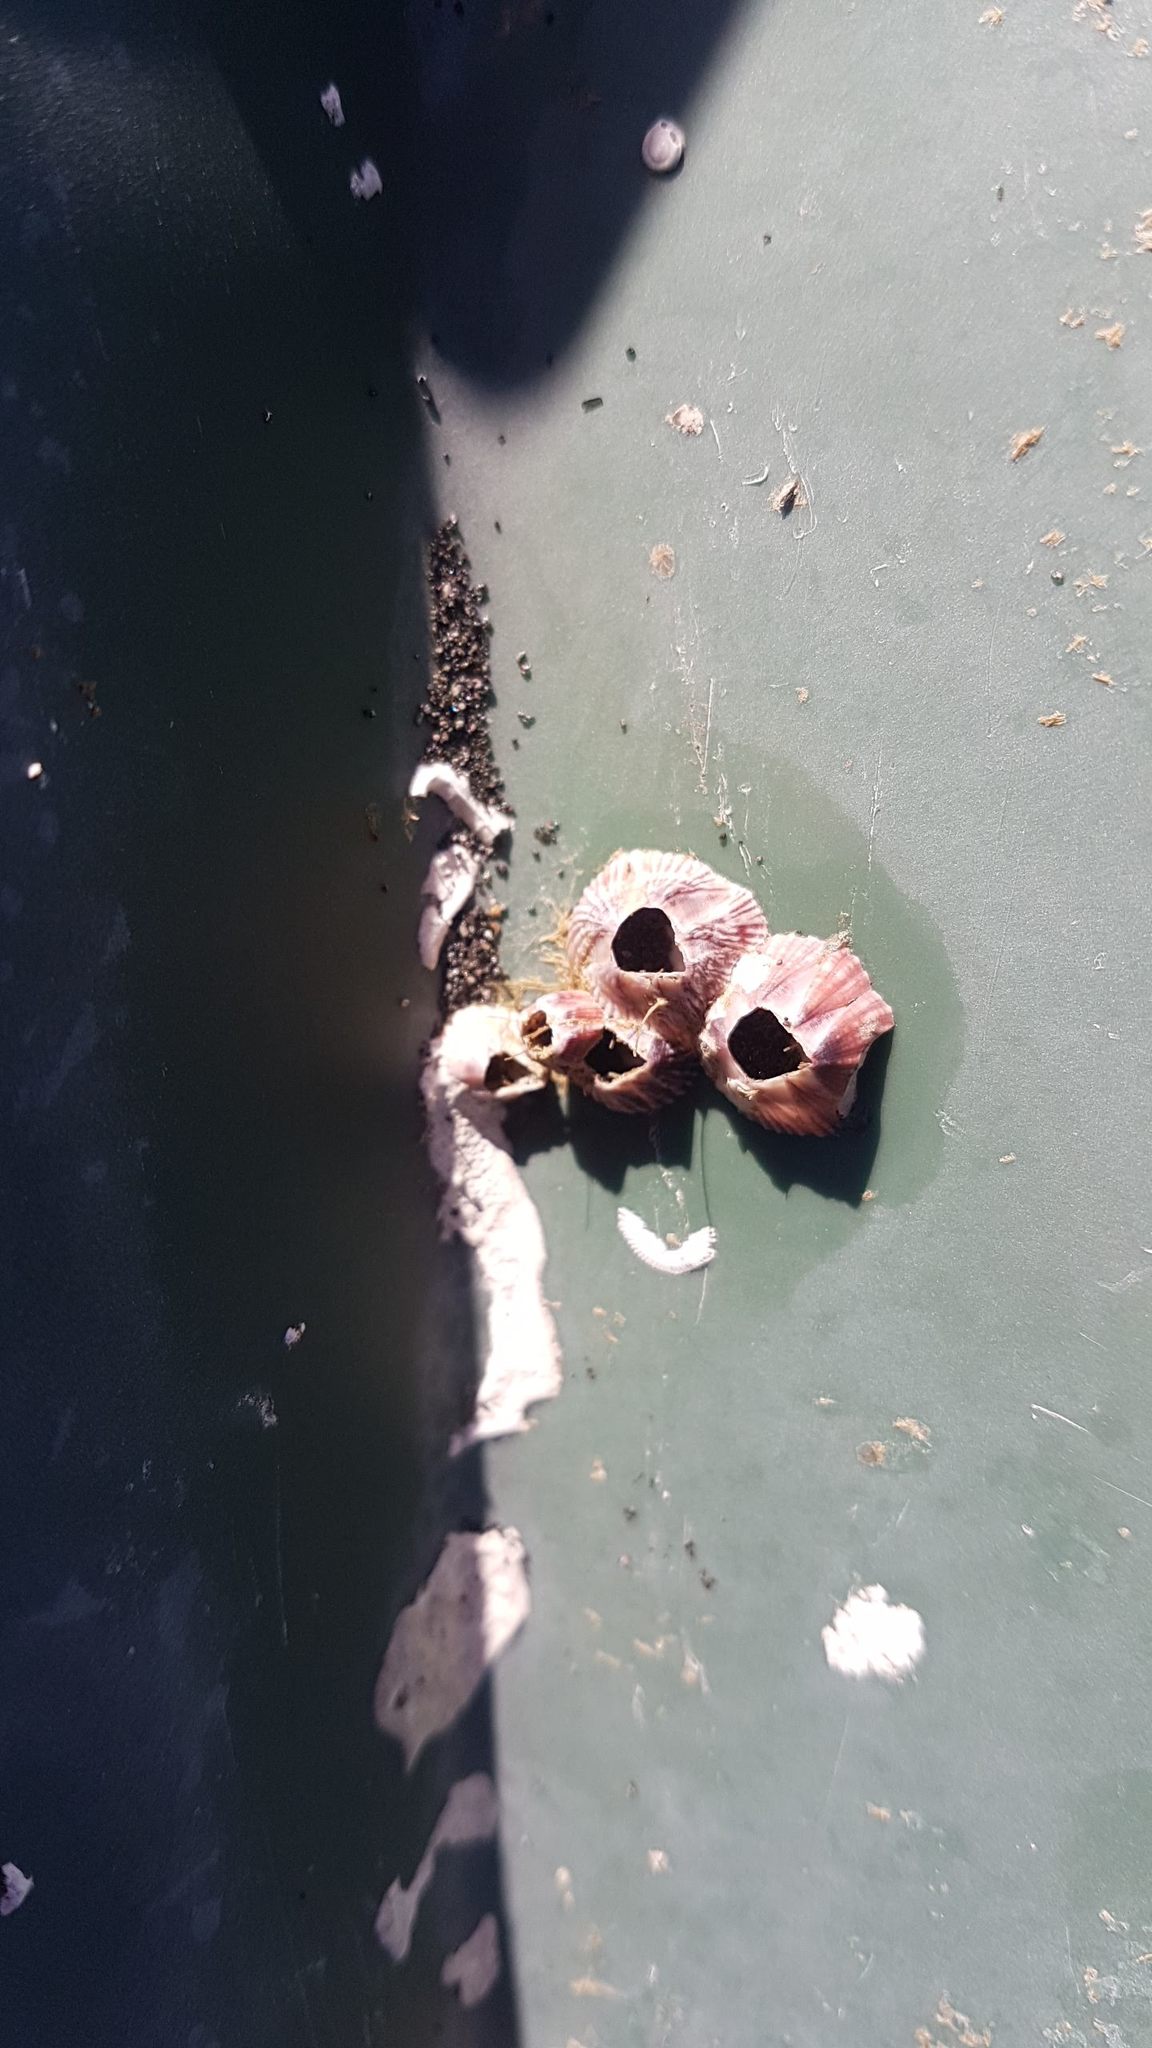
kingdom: Animalia
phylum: Arthropoda
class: Maxillopoda
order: Sessilia
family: Balanidae
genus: Balanus
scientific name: Balanus trigonus
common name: Triangle barnacle
